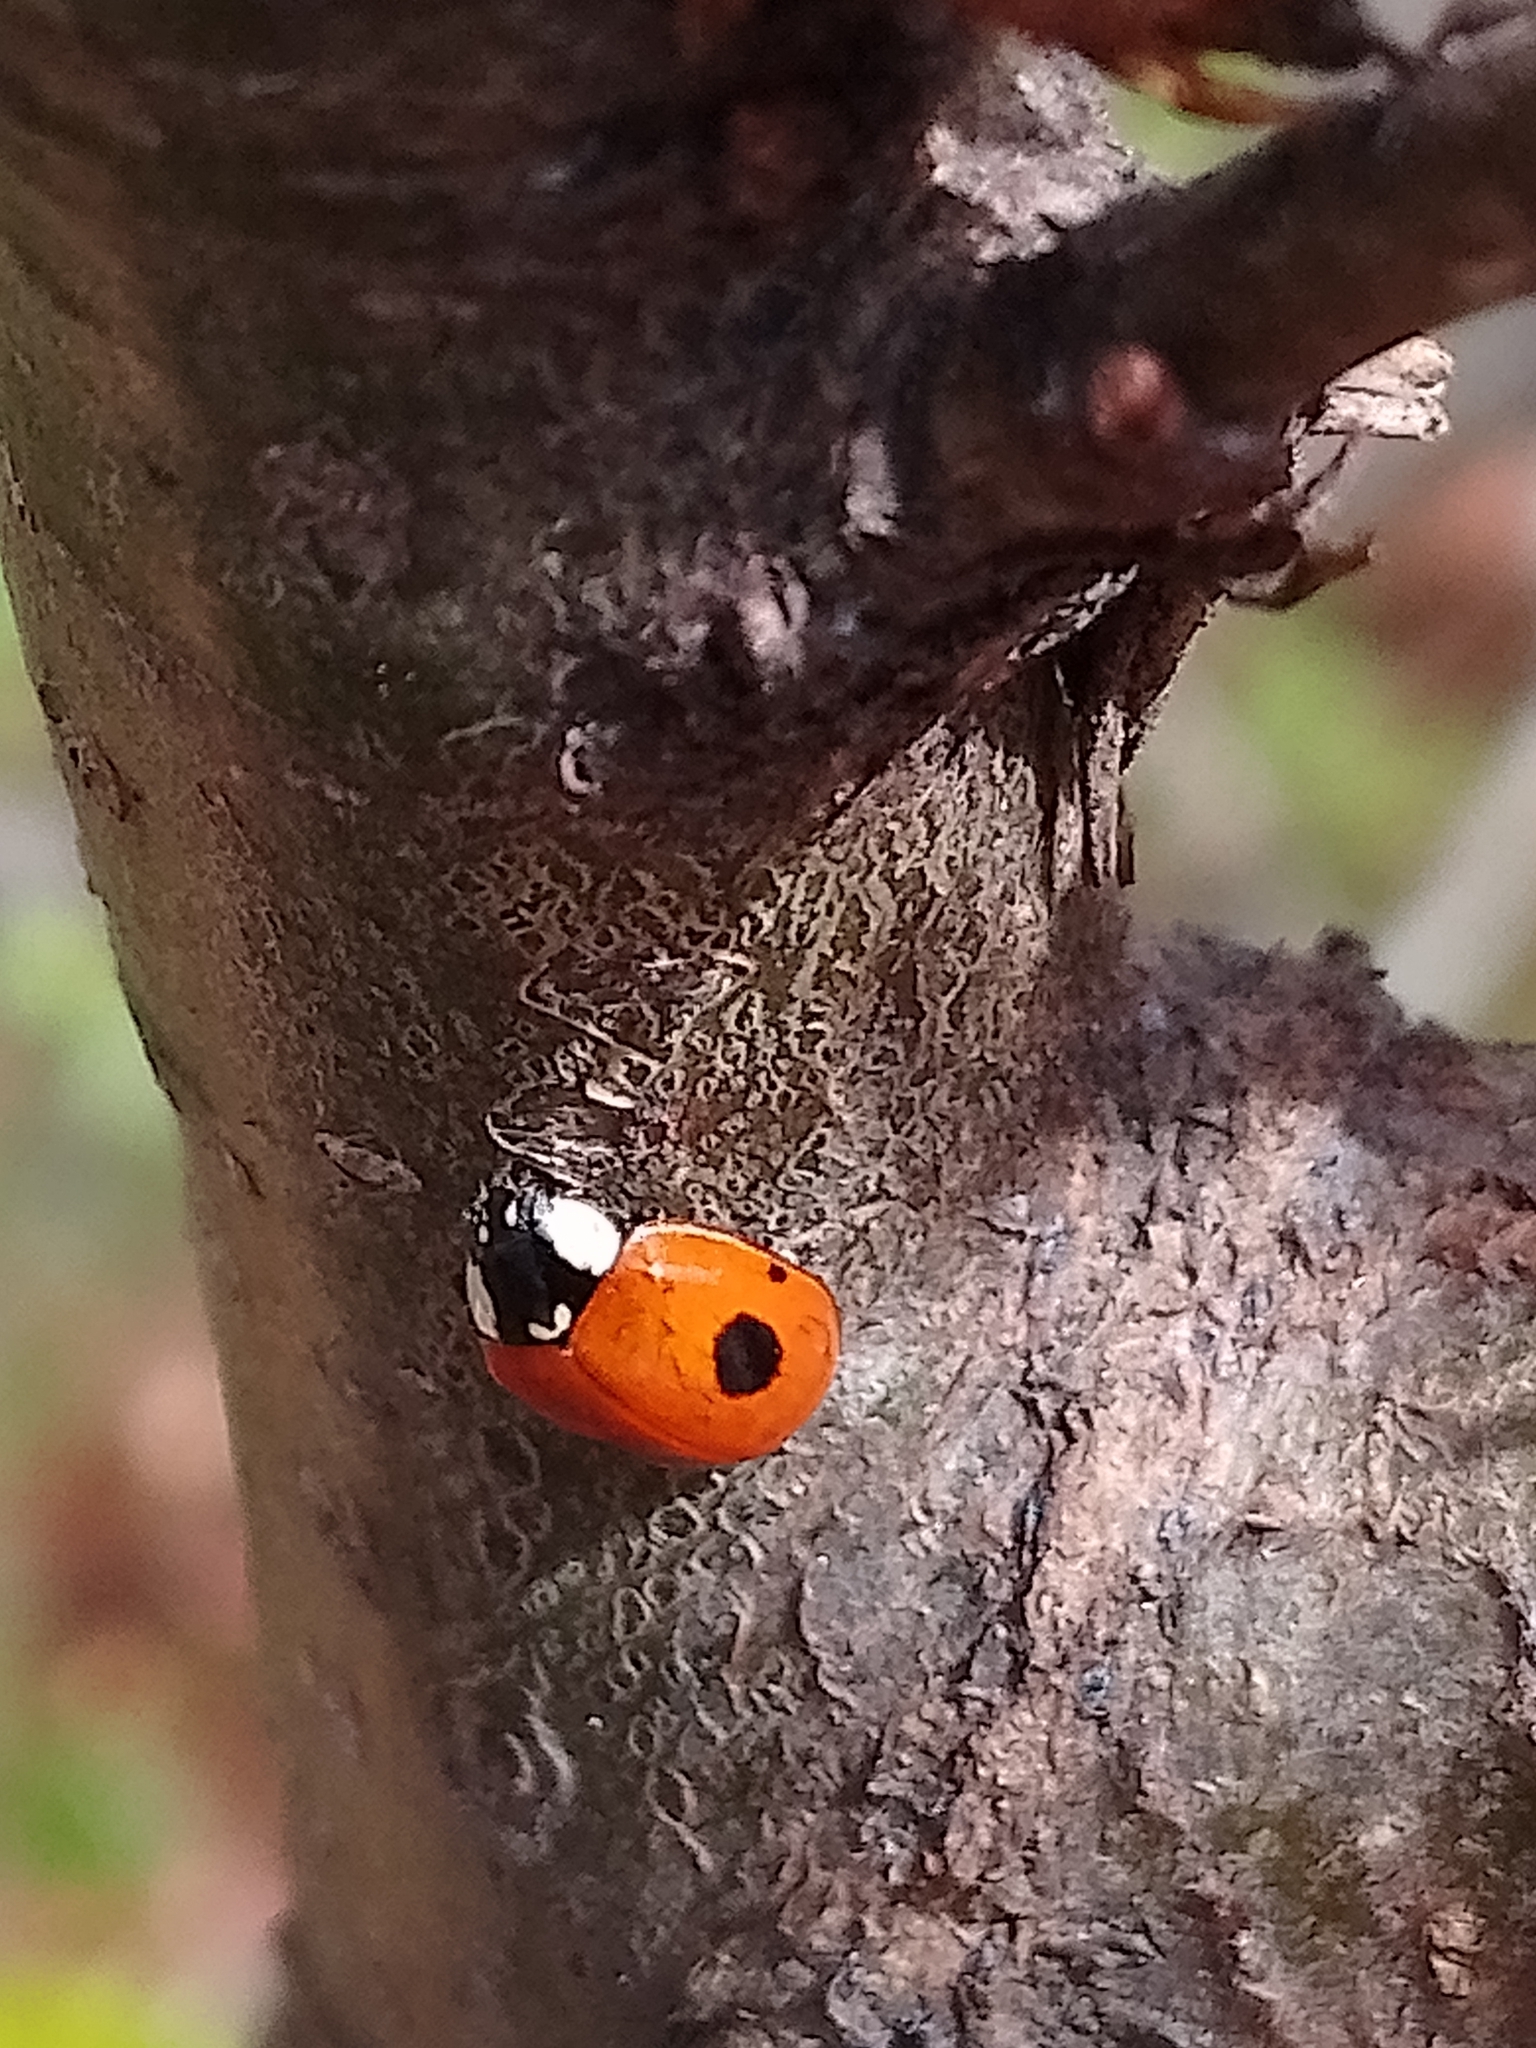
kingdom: Animalia
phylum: Arthropoda
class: Insecta
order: Coleoptera
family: Coccinellidae
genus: Adalia
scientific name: Adalia bipunctata
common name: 2-spot ladybird
